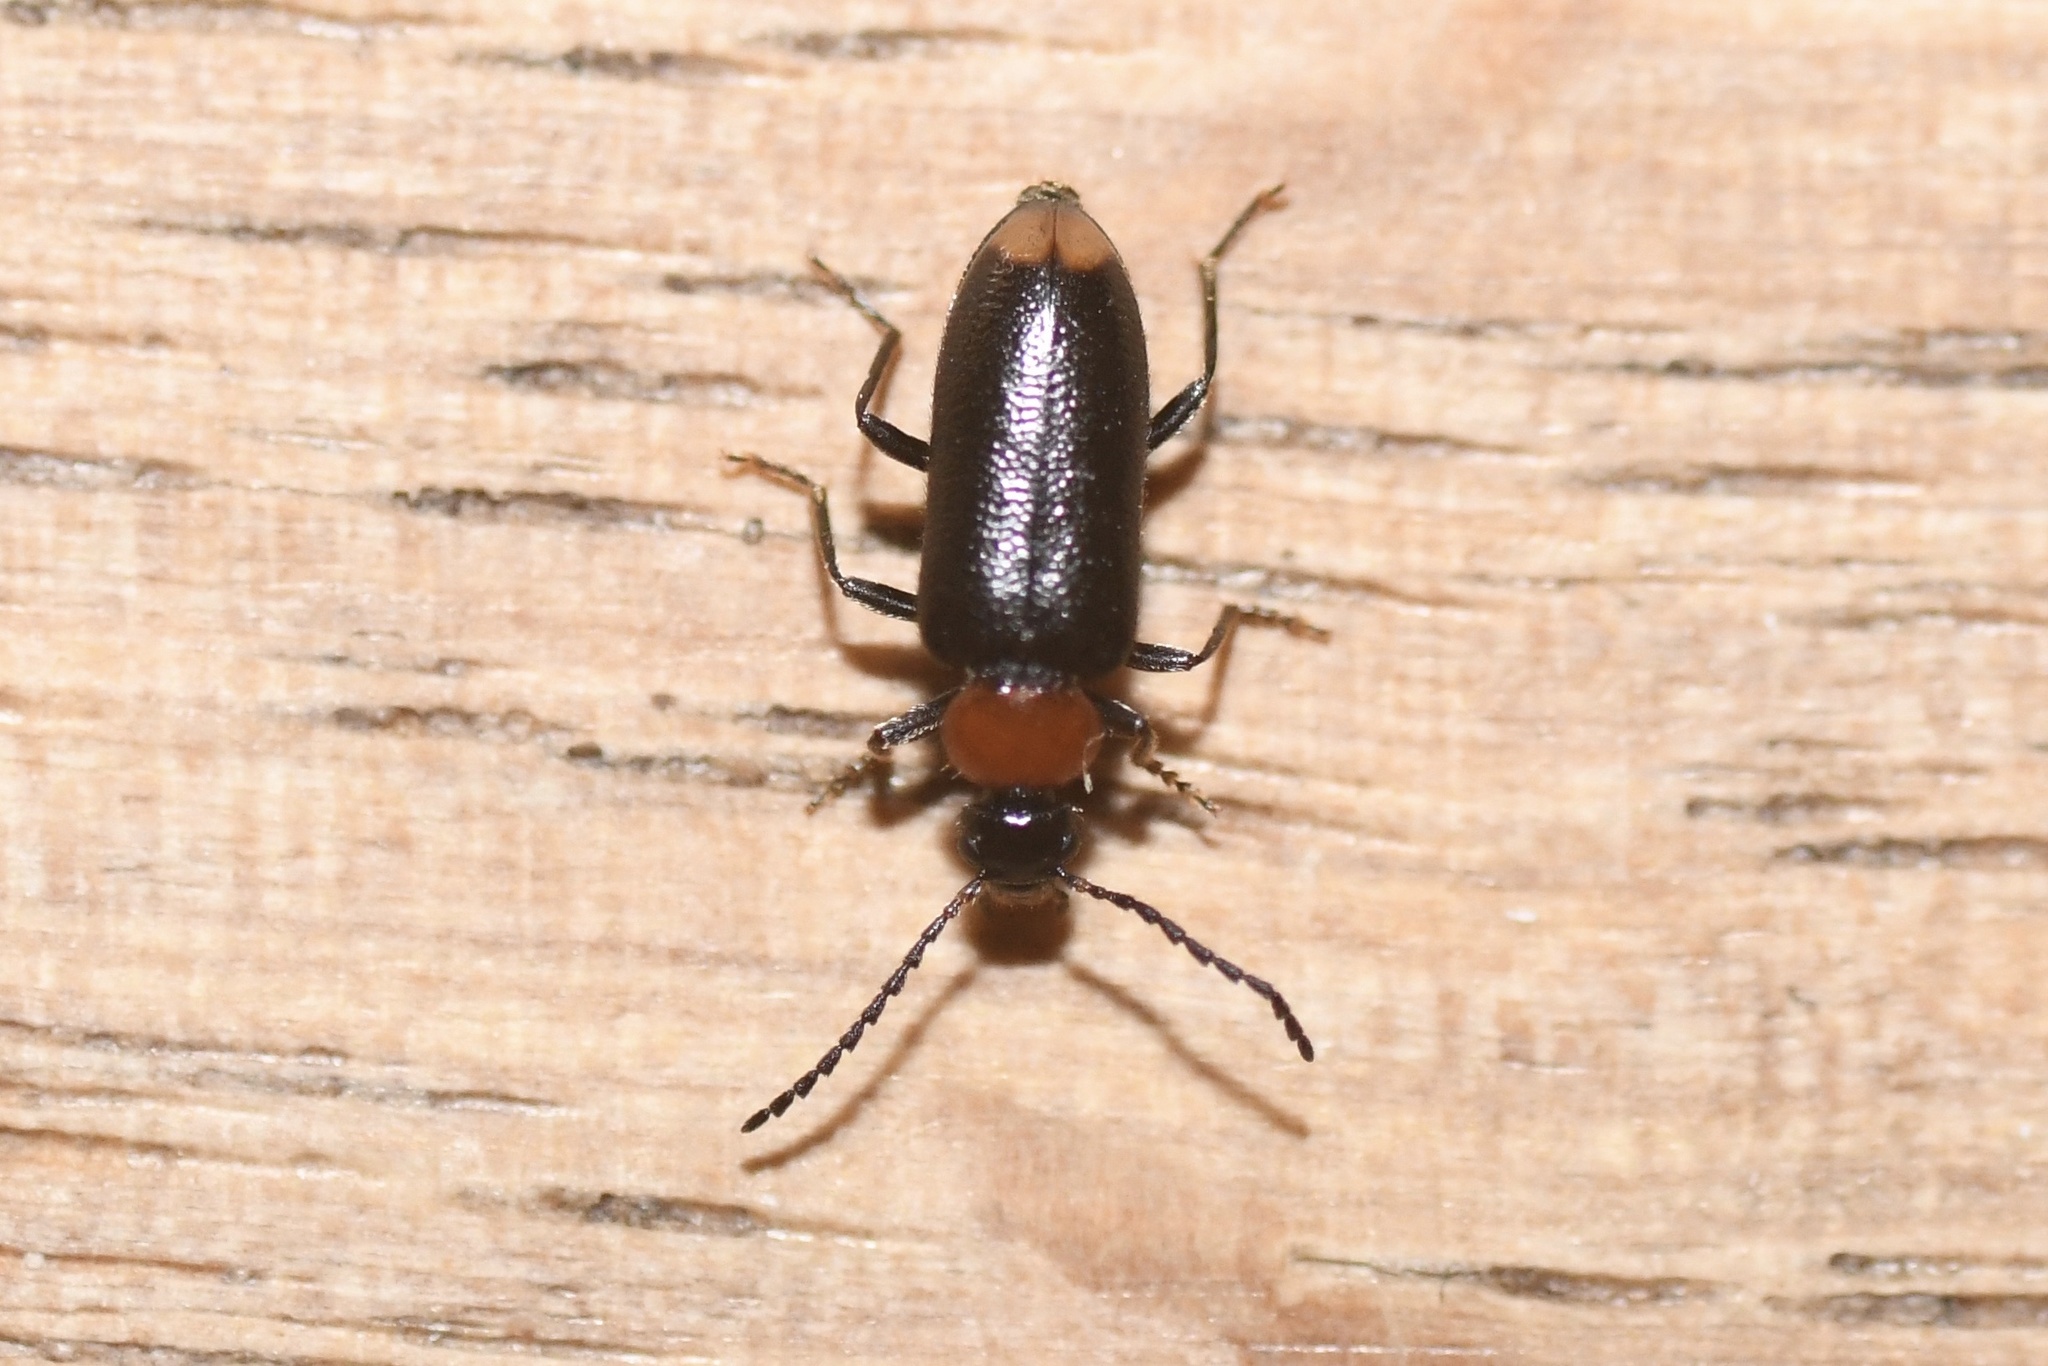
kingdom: Animalia
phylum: Arthropoda
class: Insecta
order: Coleoptera
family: Pyrochroidae
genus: Pedilus
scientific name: Pedilus terminalis
